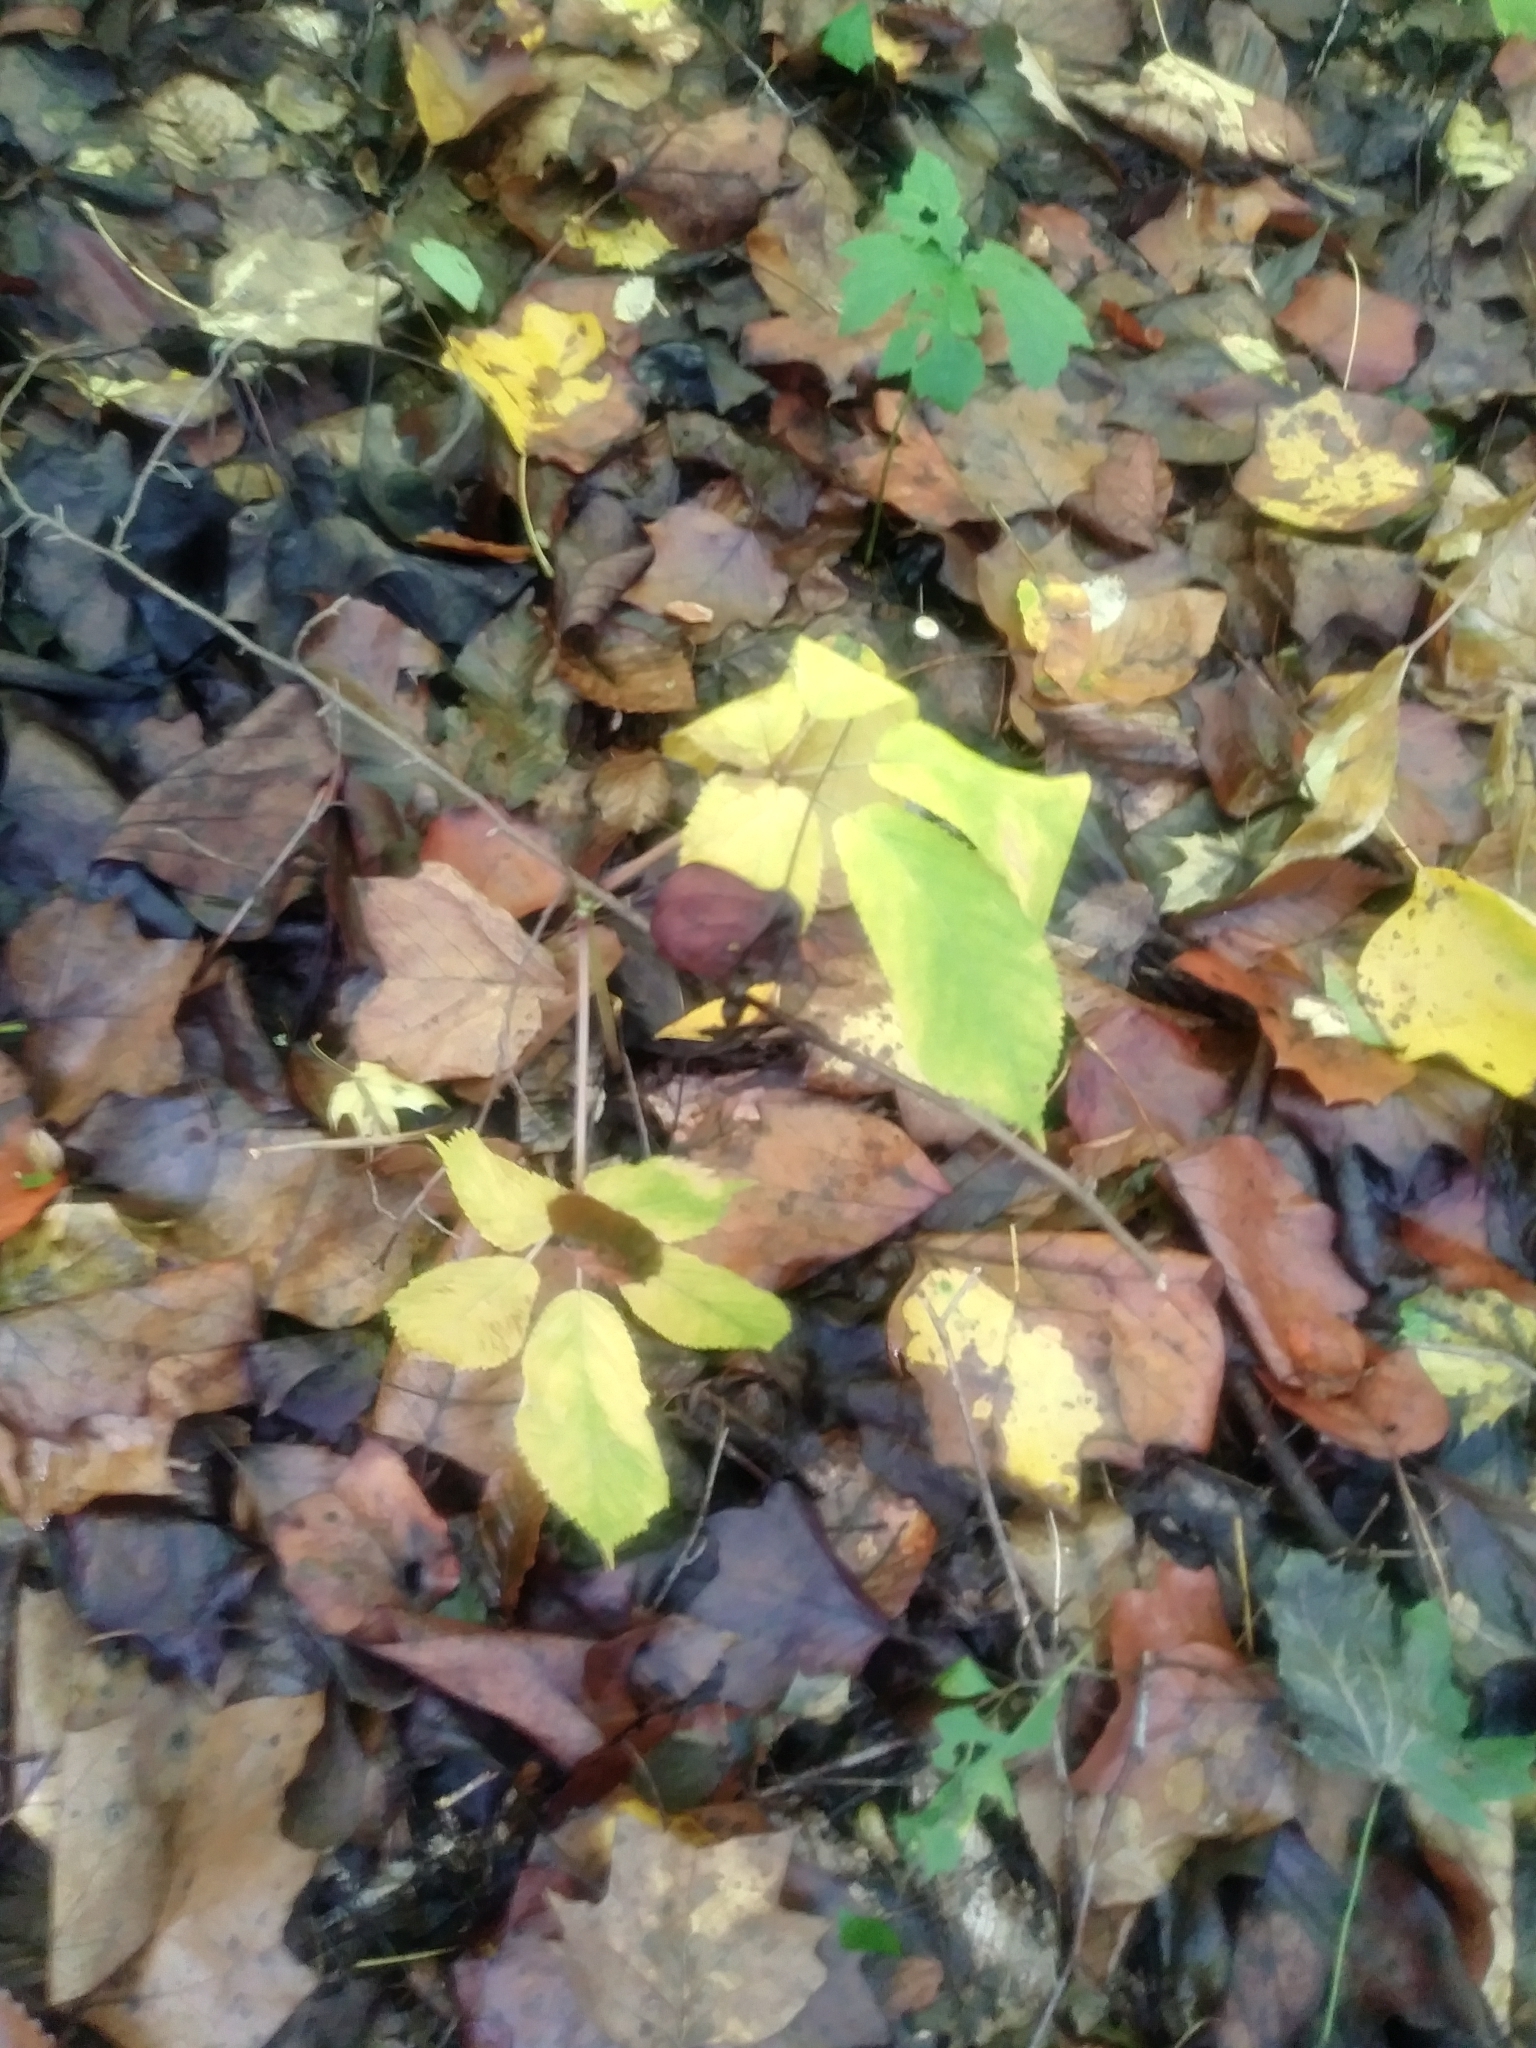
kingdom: Plantae
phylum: Tracheophyta
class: Magnoliopsida
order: Apiales
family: Araliaceae
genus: Panax
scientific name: Panax quinquefolius
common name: American ginseng
